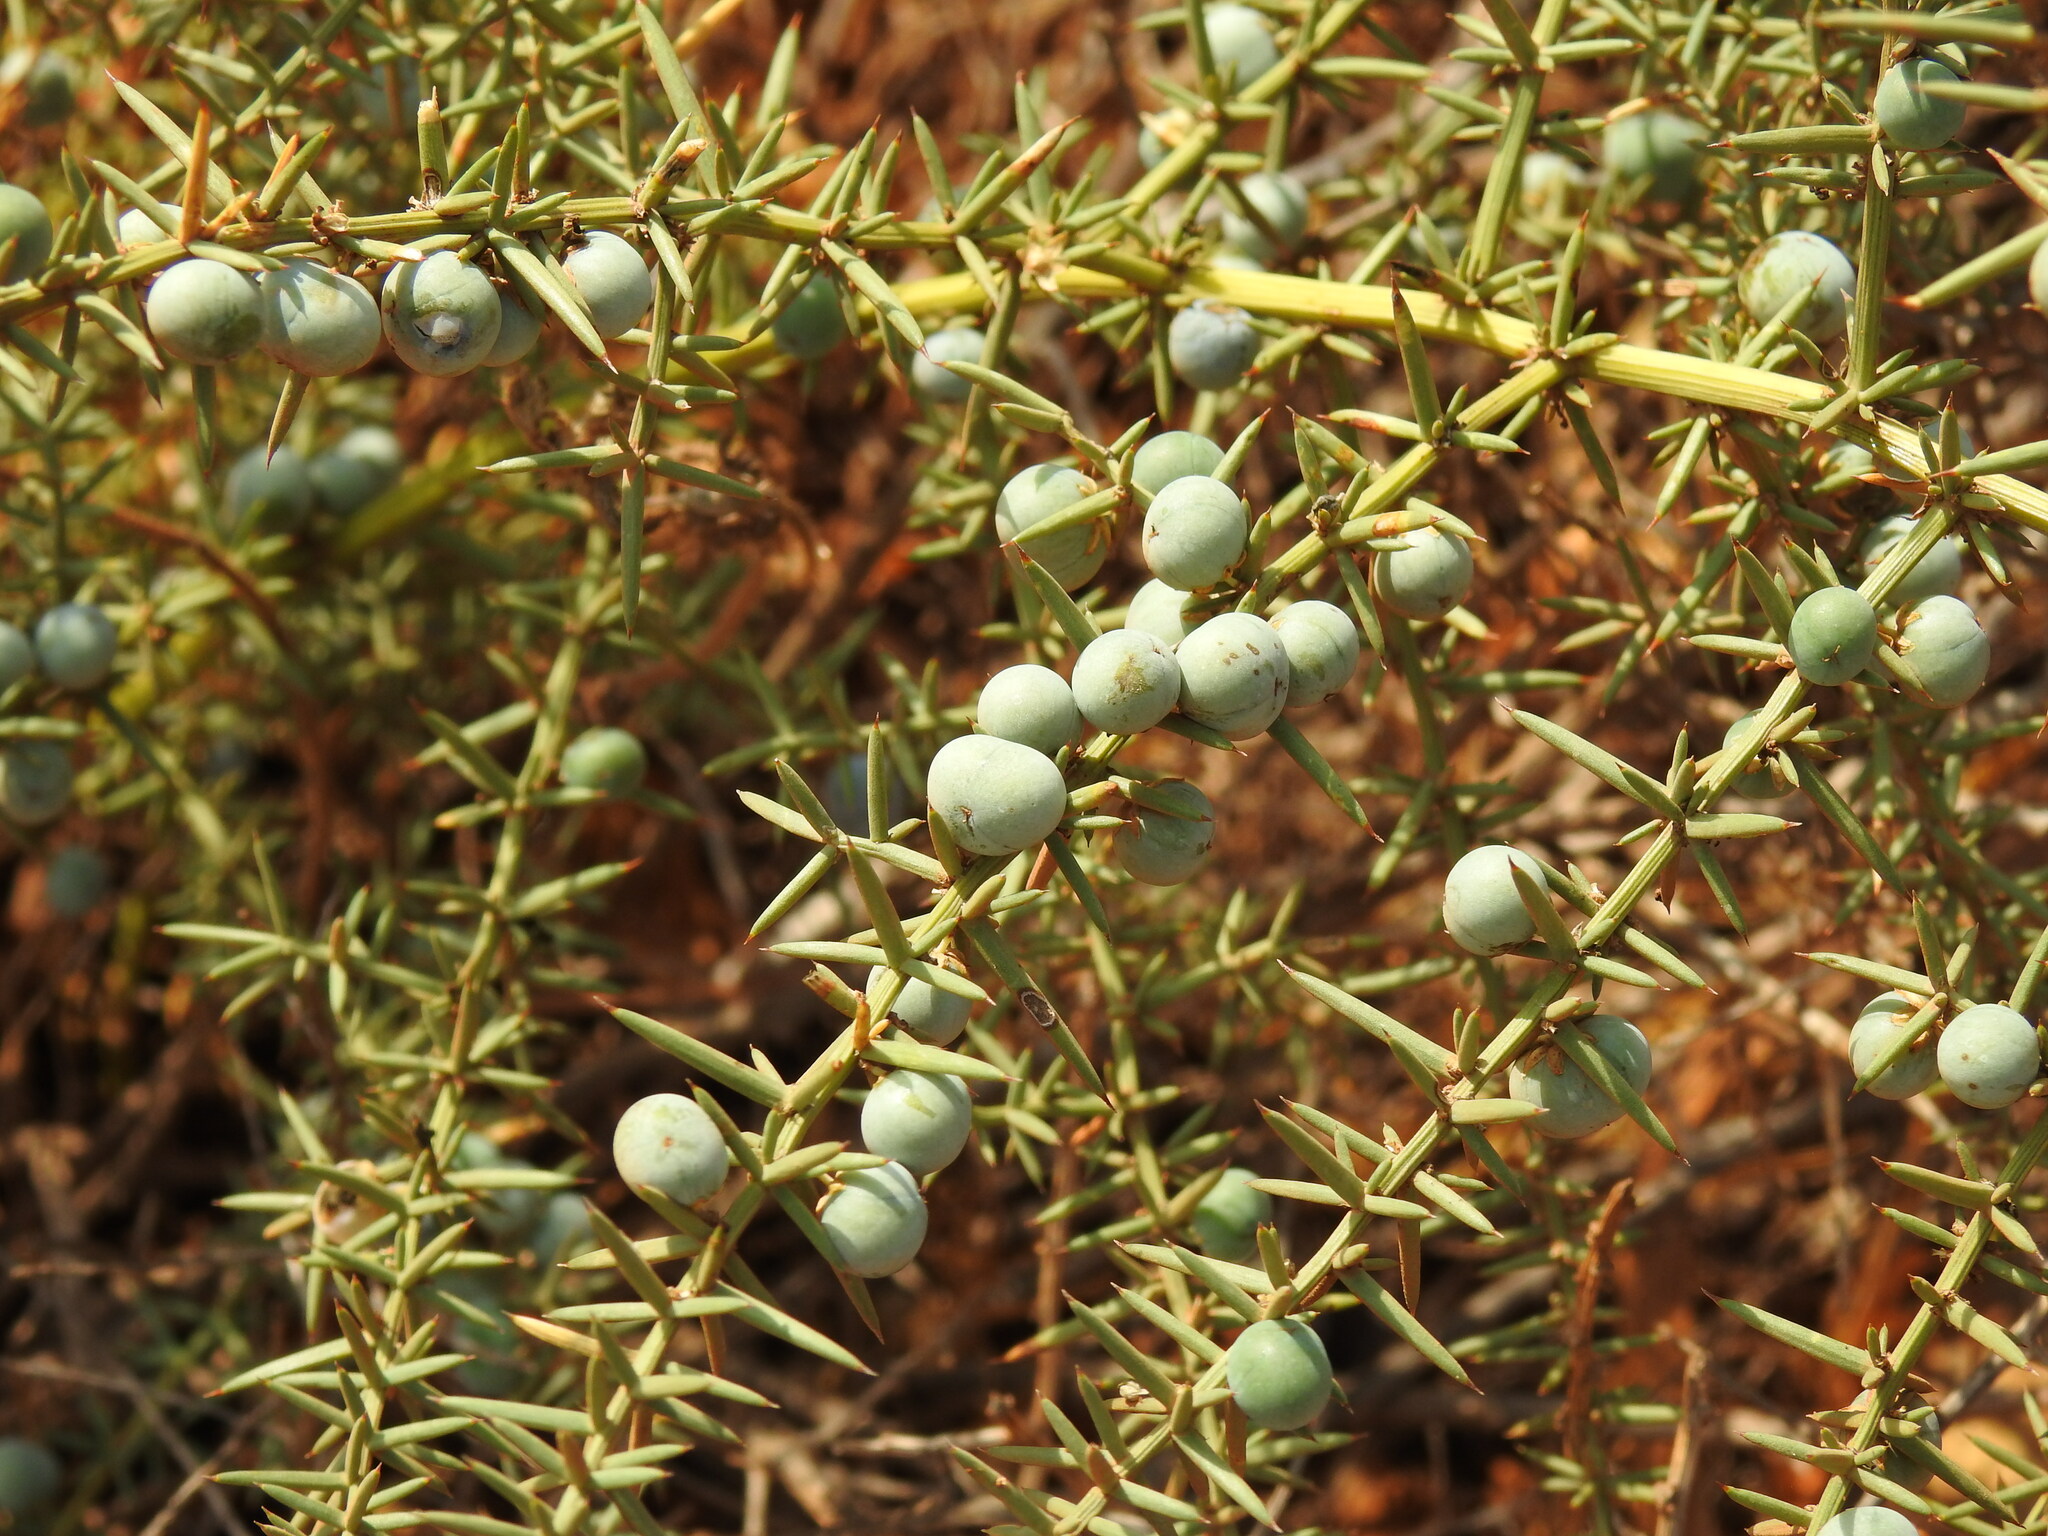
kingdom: Plantae
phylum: Tracheophyta
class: Liliopsida
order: Asparagales
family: Asparagaceae
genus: Asparagus
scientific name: Asparagus aphyllus
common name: Mediterranean asparagus
